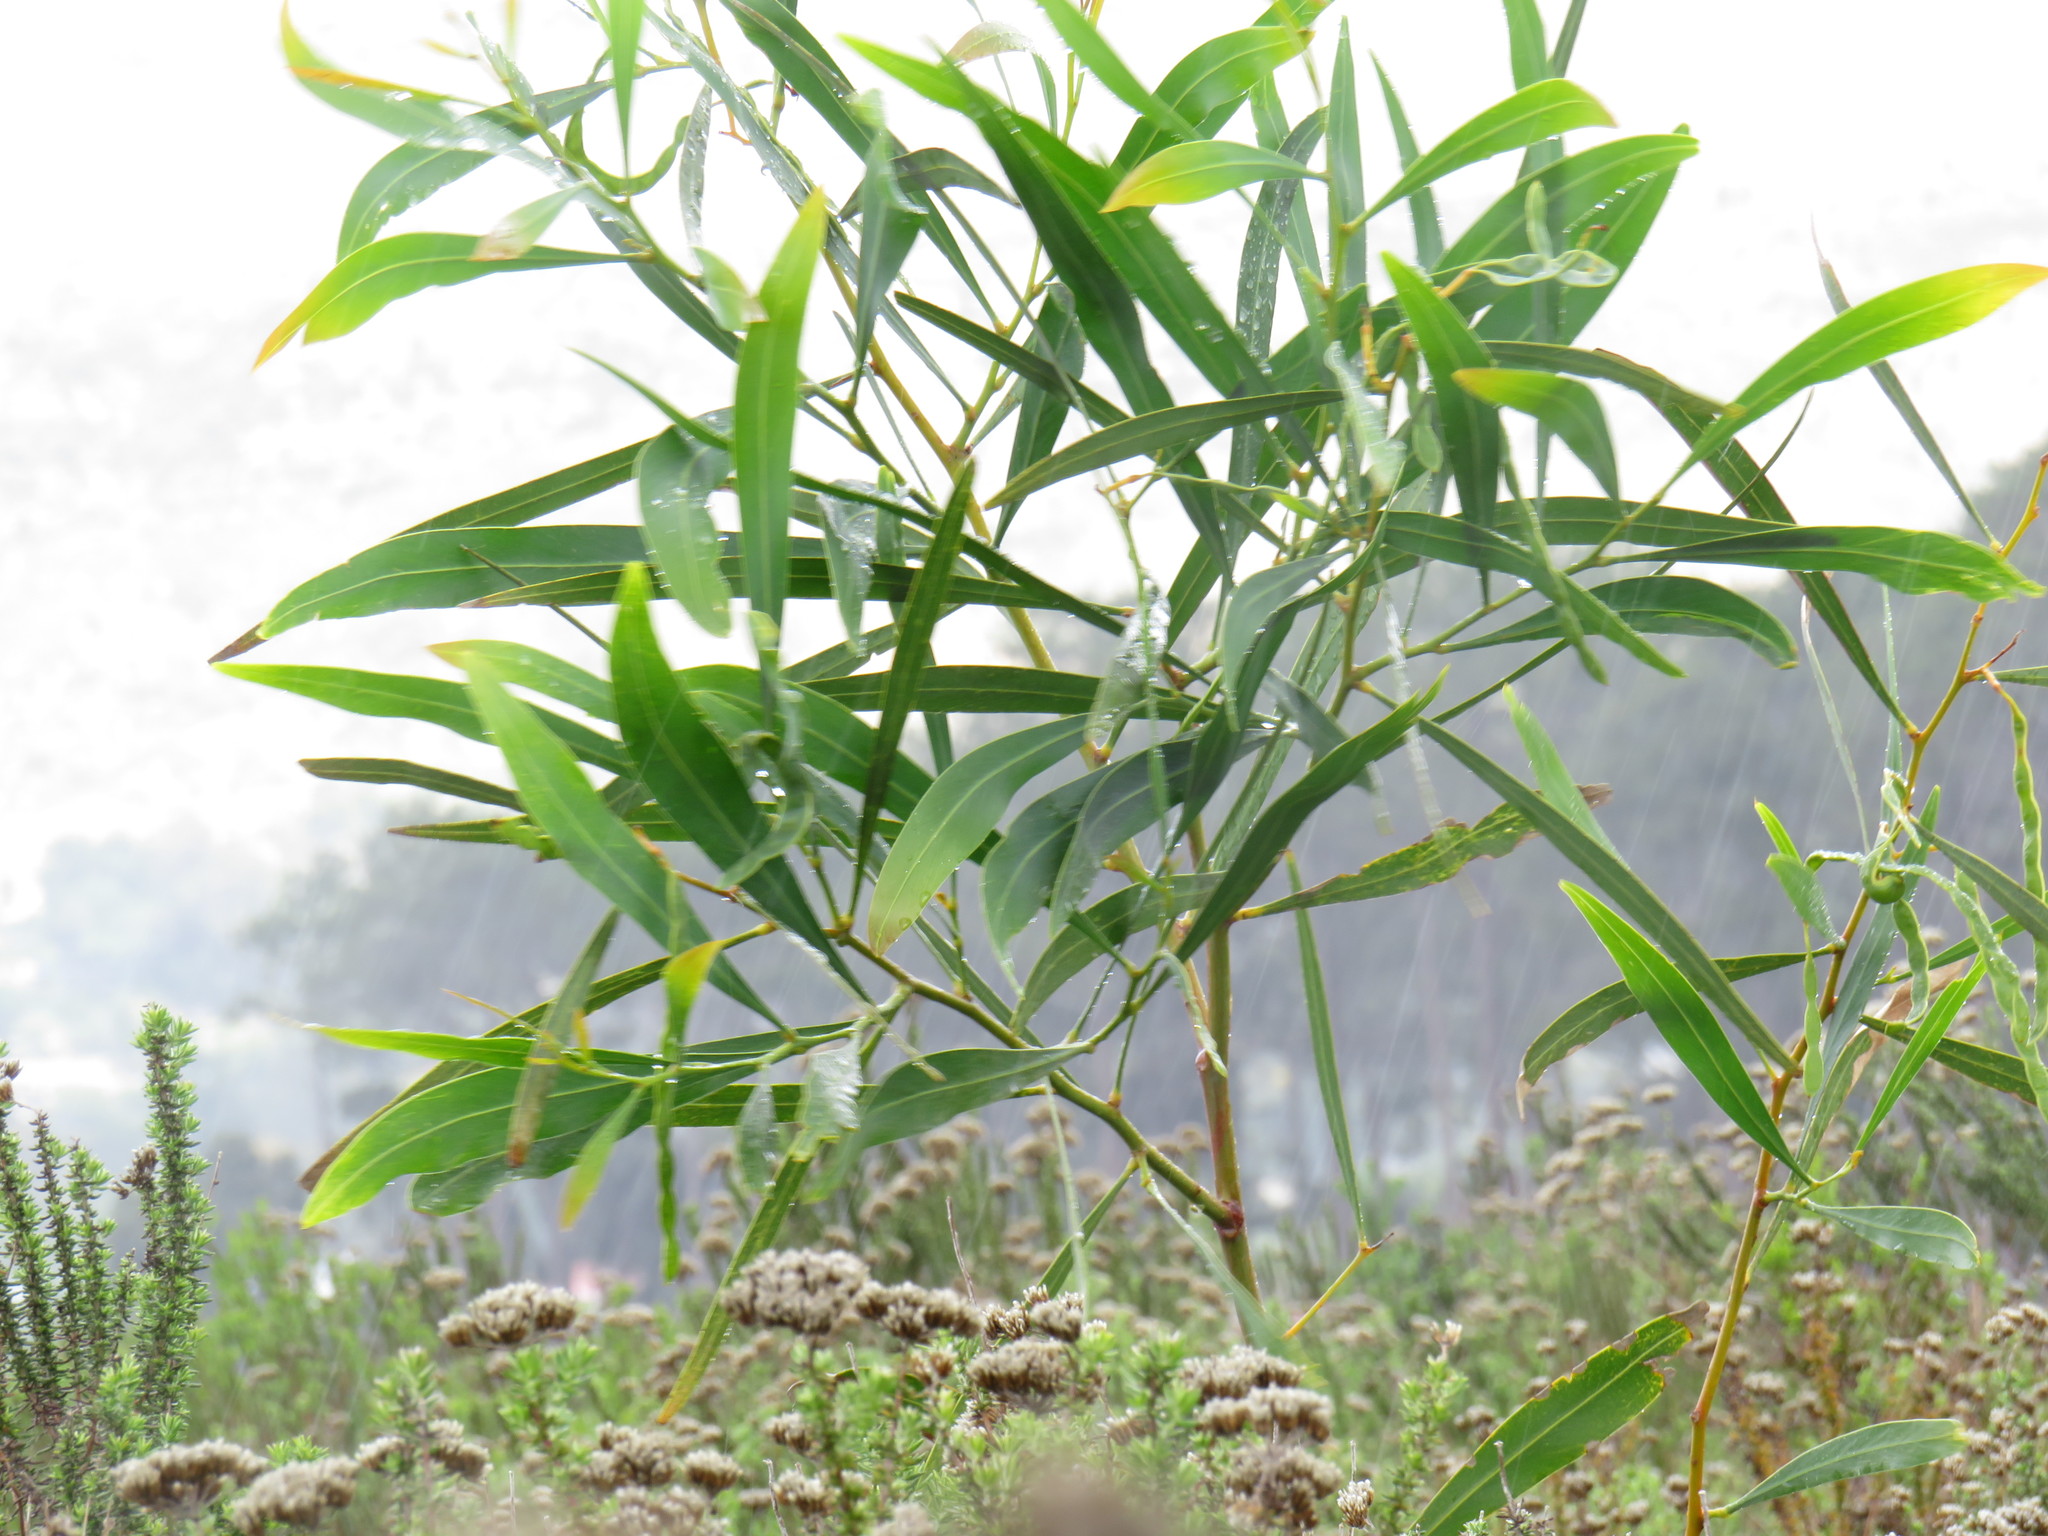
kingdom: Plantae
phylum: Tracheophyta
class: Magnoliopsida
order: Fabales
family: Fabaceae
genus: Acacia
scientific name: Acacia saligna
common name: Orange wattle
